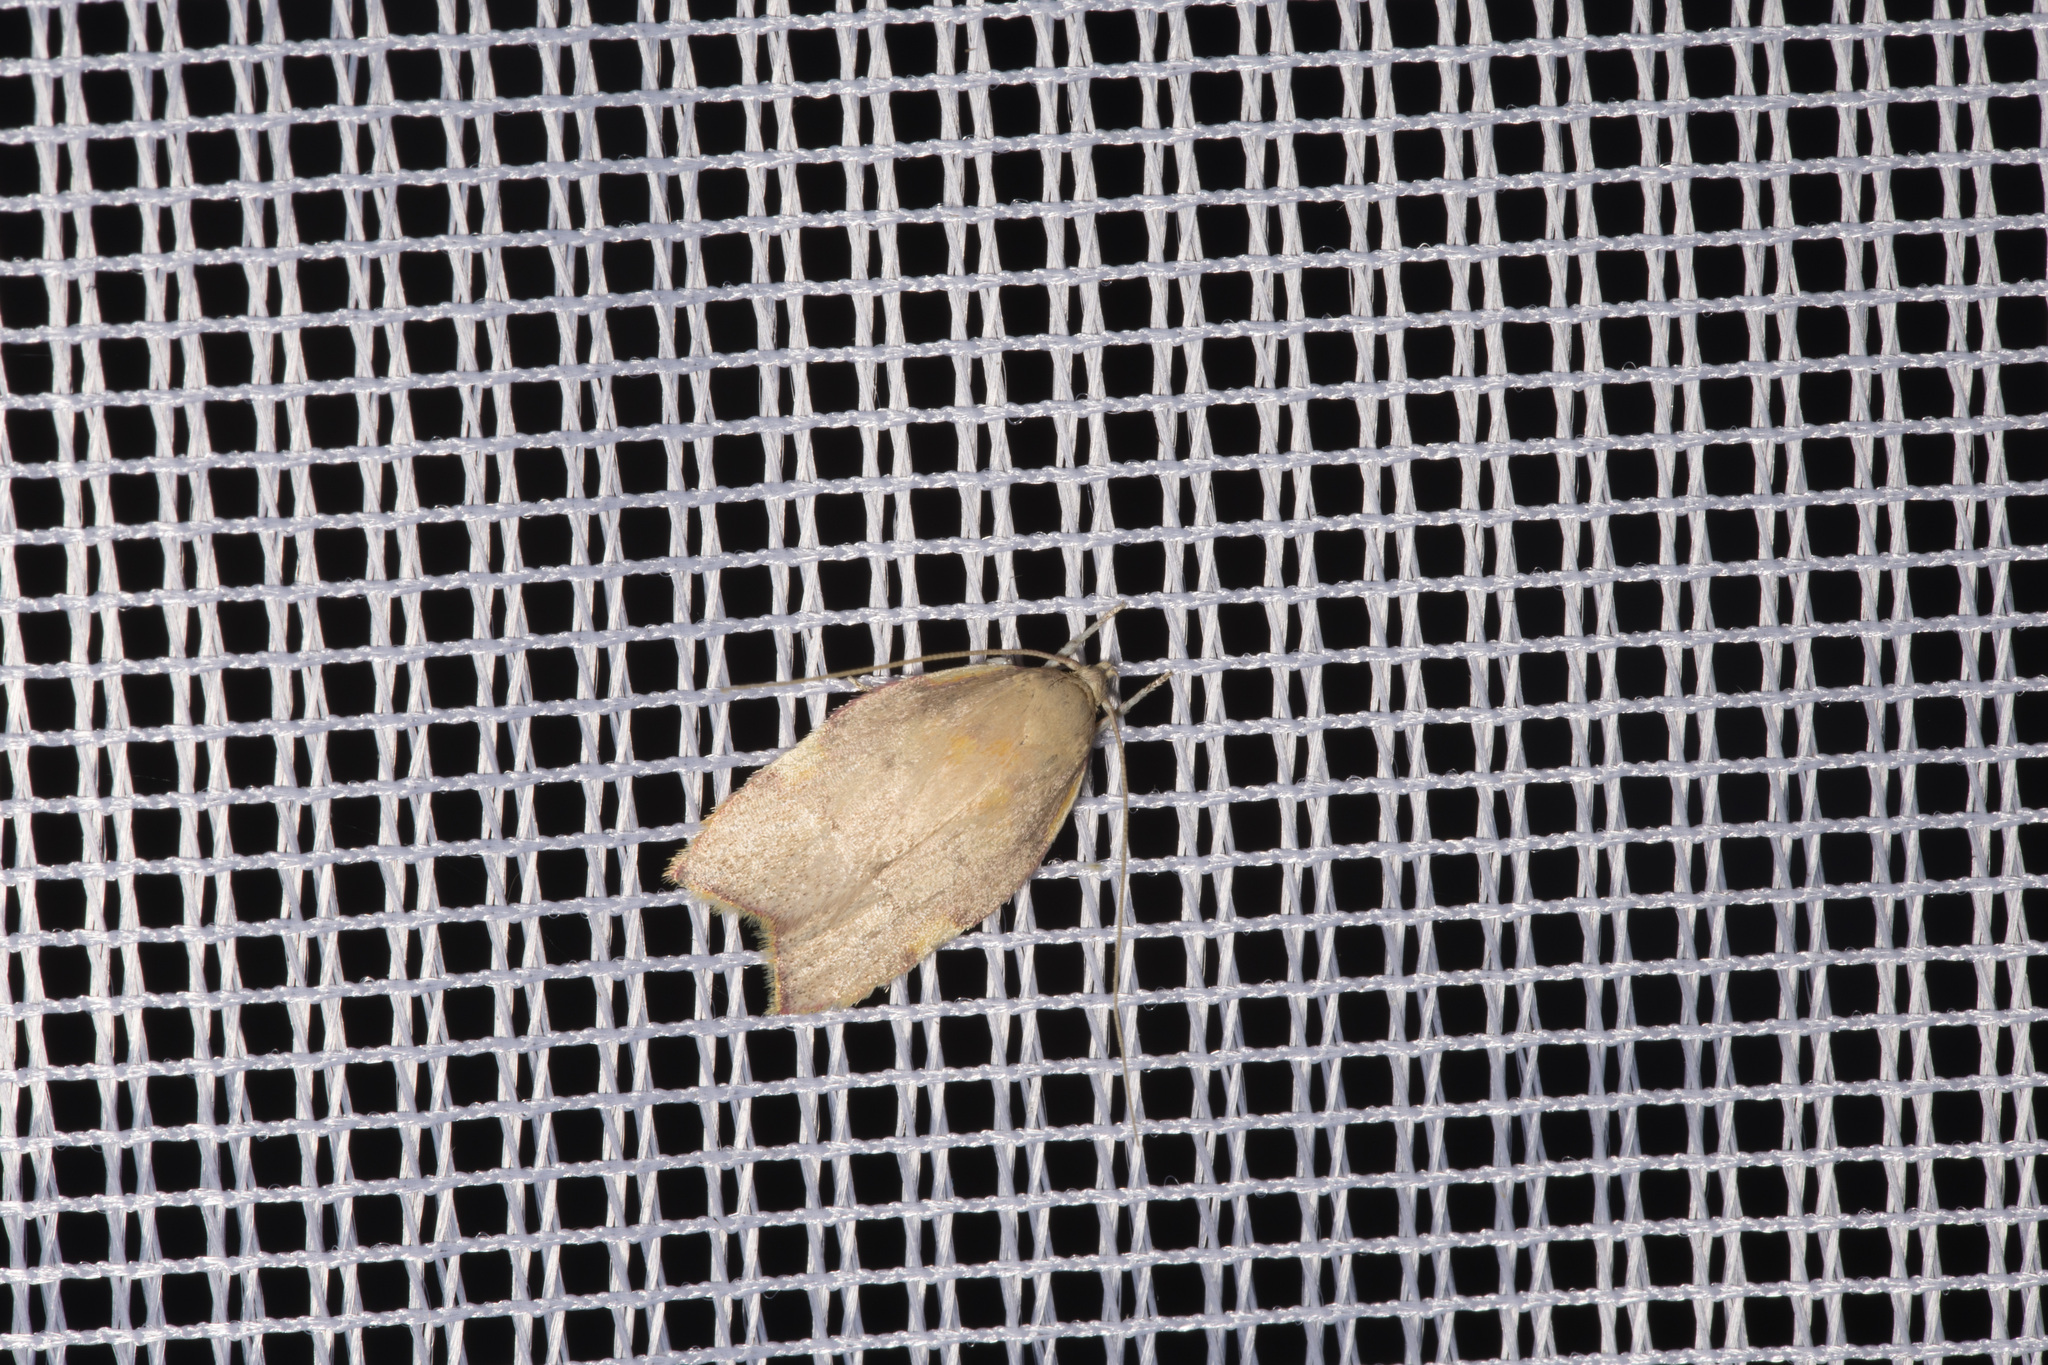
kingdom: Animalia
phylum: Arthropoda
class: Insecta
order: Lepidoptera
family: Peleopodidae
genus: Carcina
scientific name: Carcina quercana
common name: Moth
